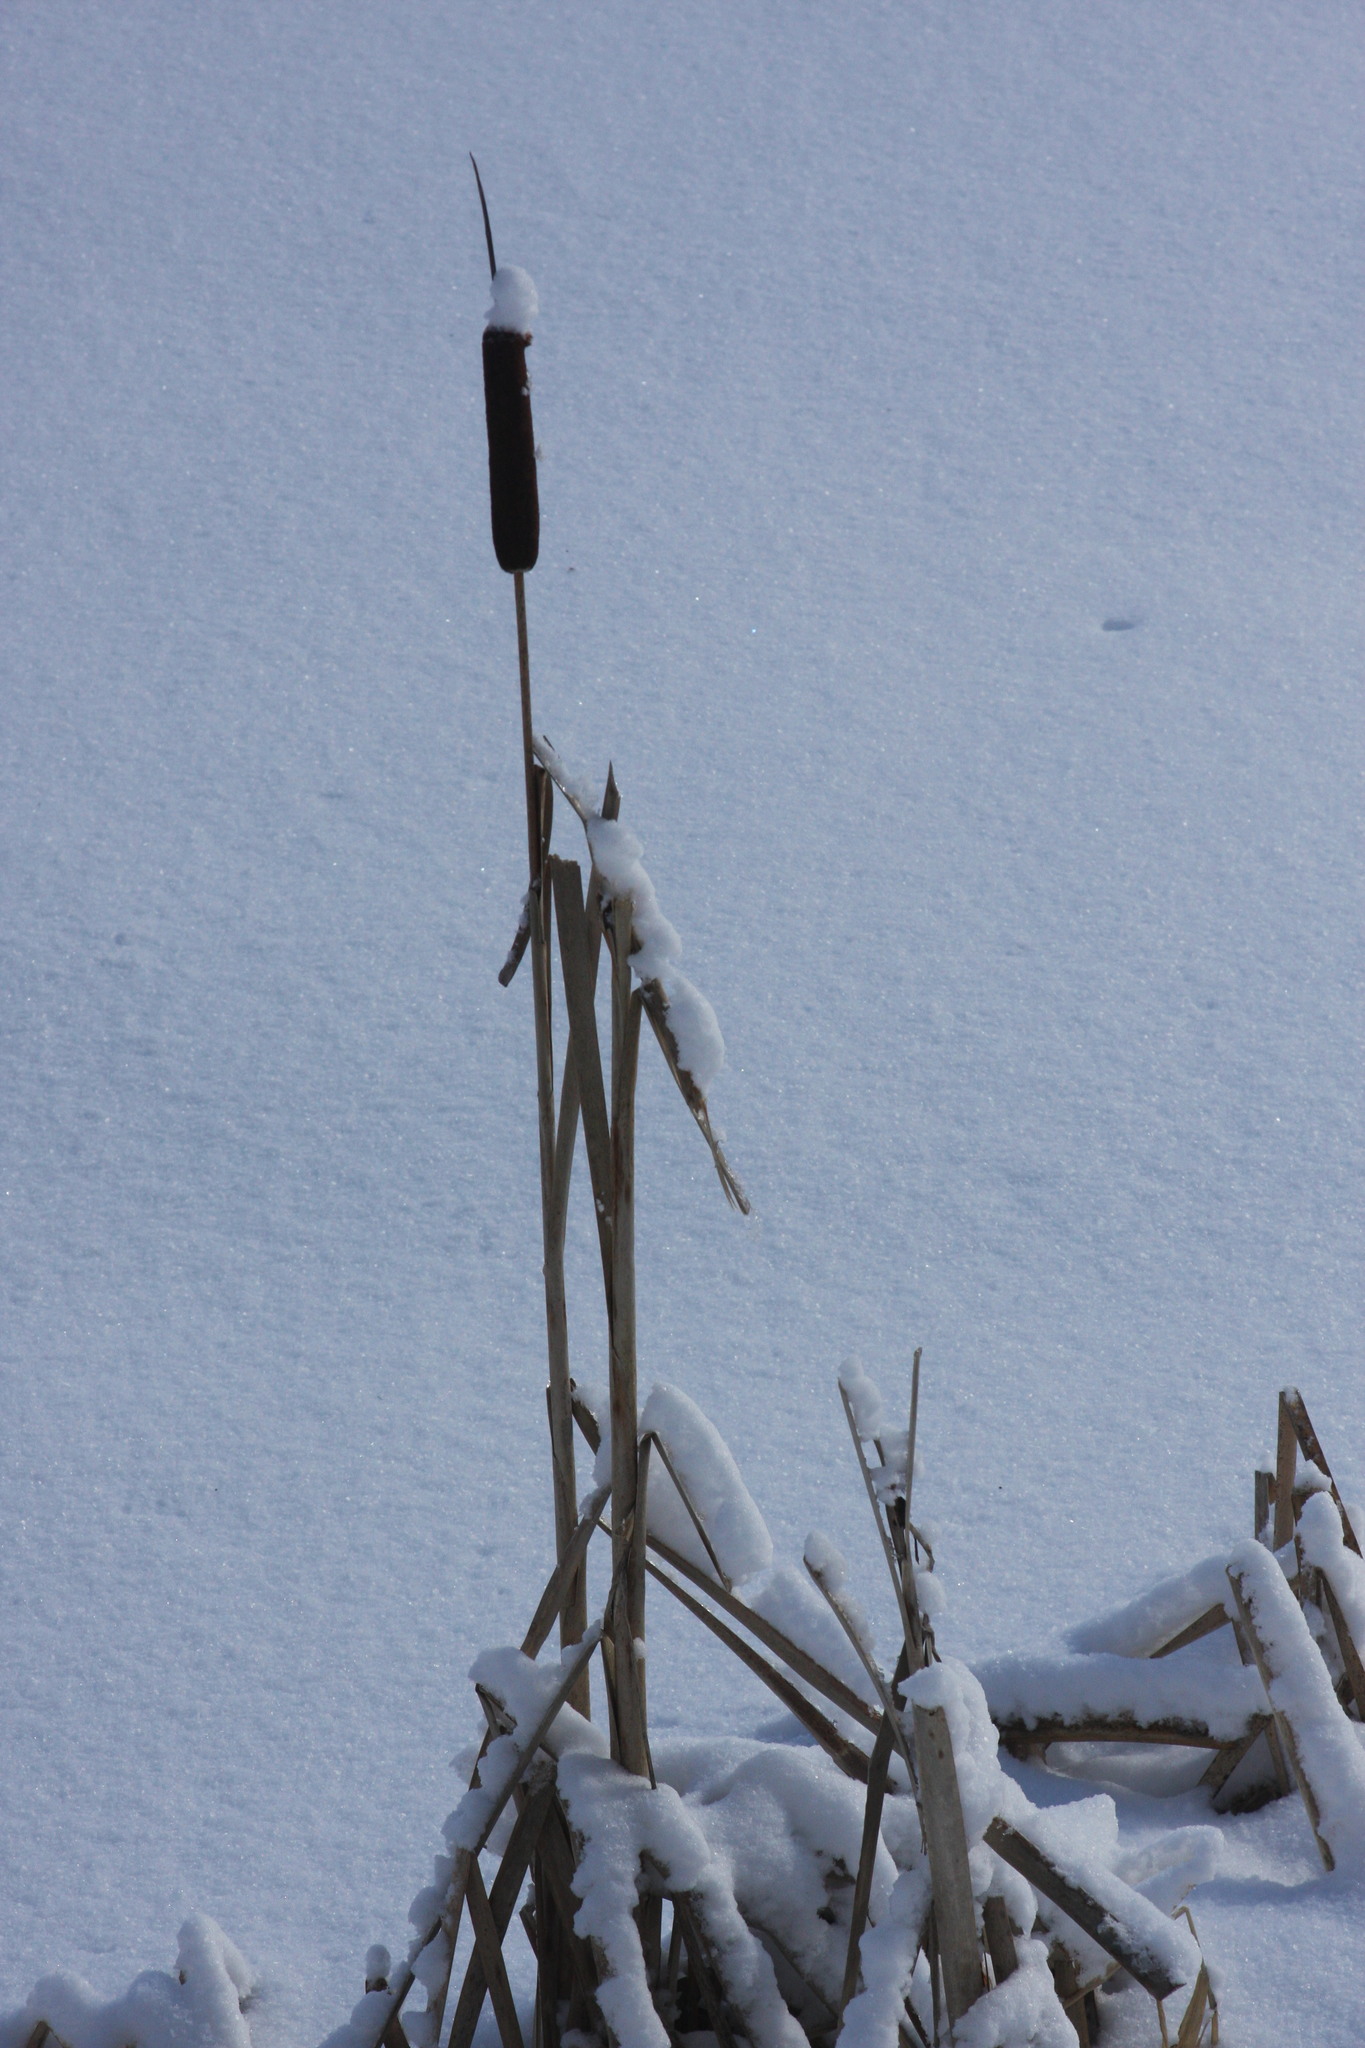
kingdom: Plantae
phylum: Tracheophyta
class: Liliopsida
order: Poales
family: Typhaceae
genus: Typha
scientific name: Typha latifolia
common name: Broadleaf cattail
